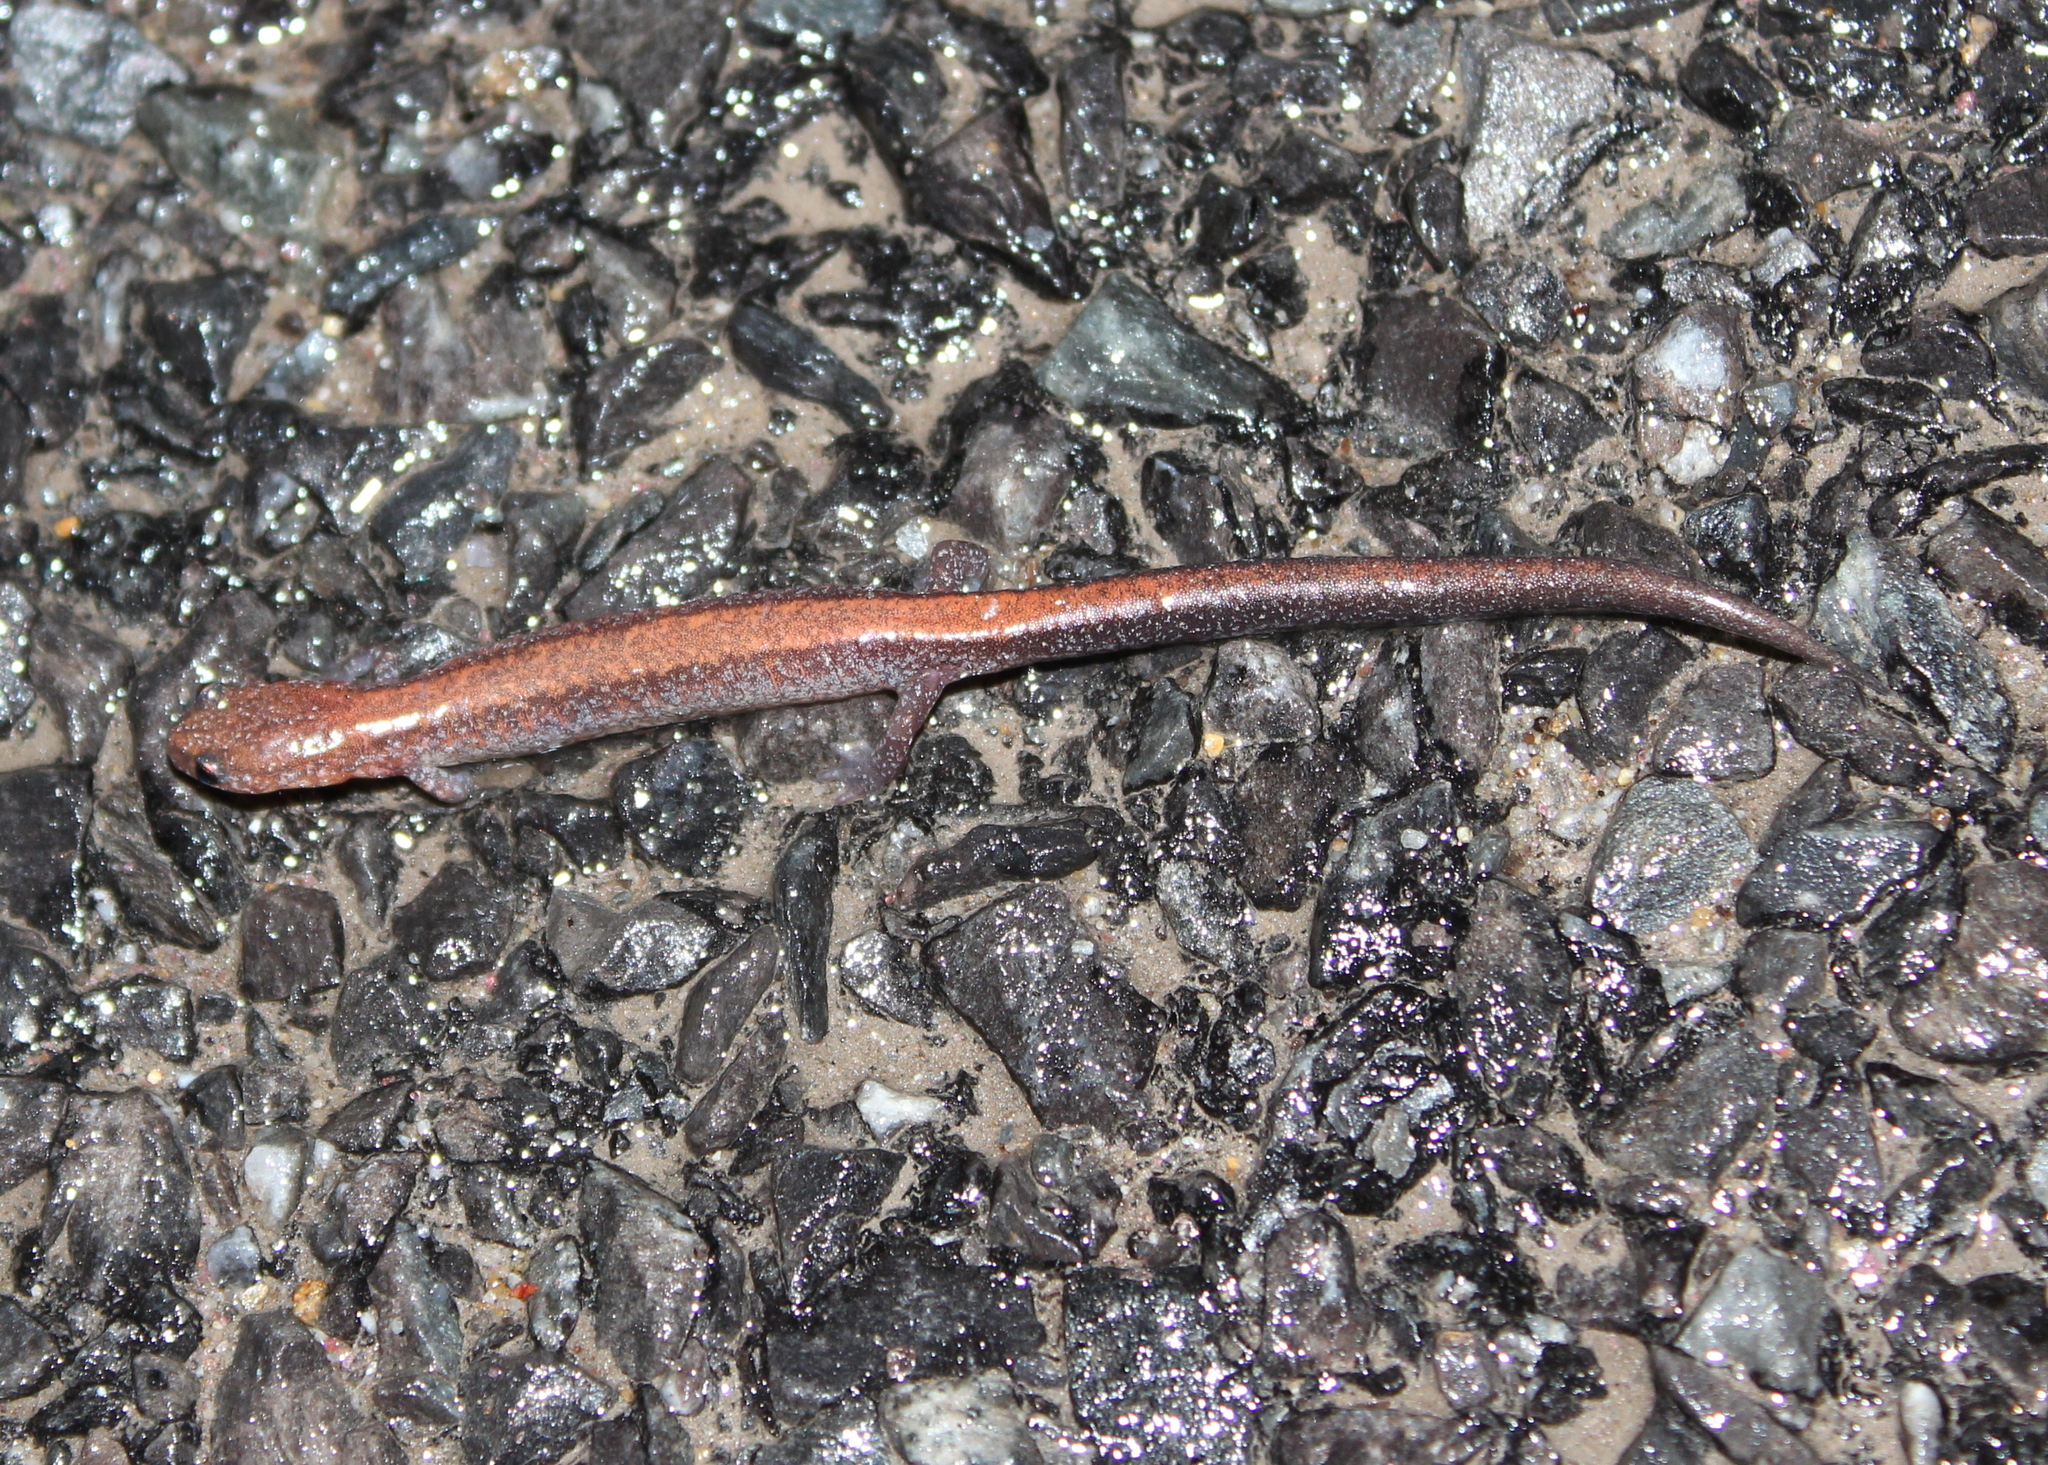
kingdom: Animalia
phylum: Chordata
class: Amphibia
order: Caudata
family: Plethodontidae
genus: Plethodon
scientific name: Plethodon cinereus
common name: Redback salamander
